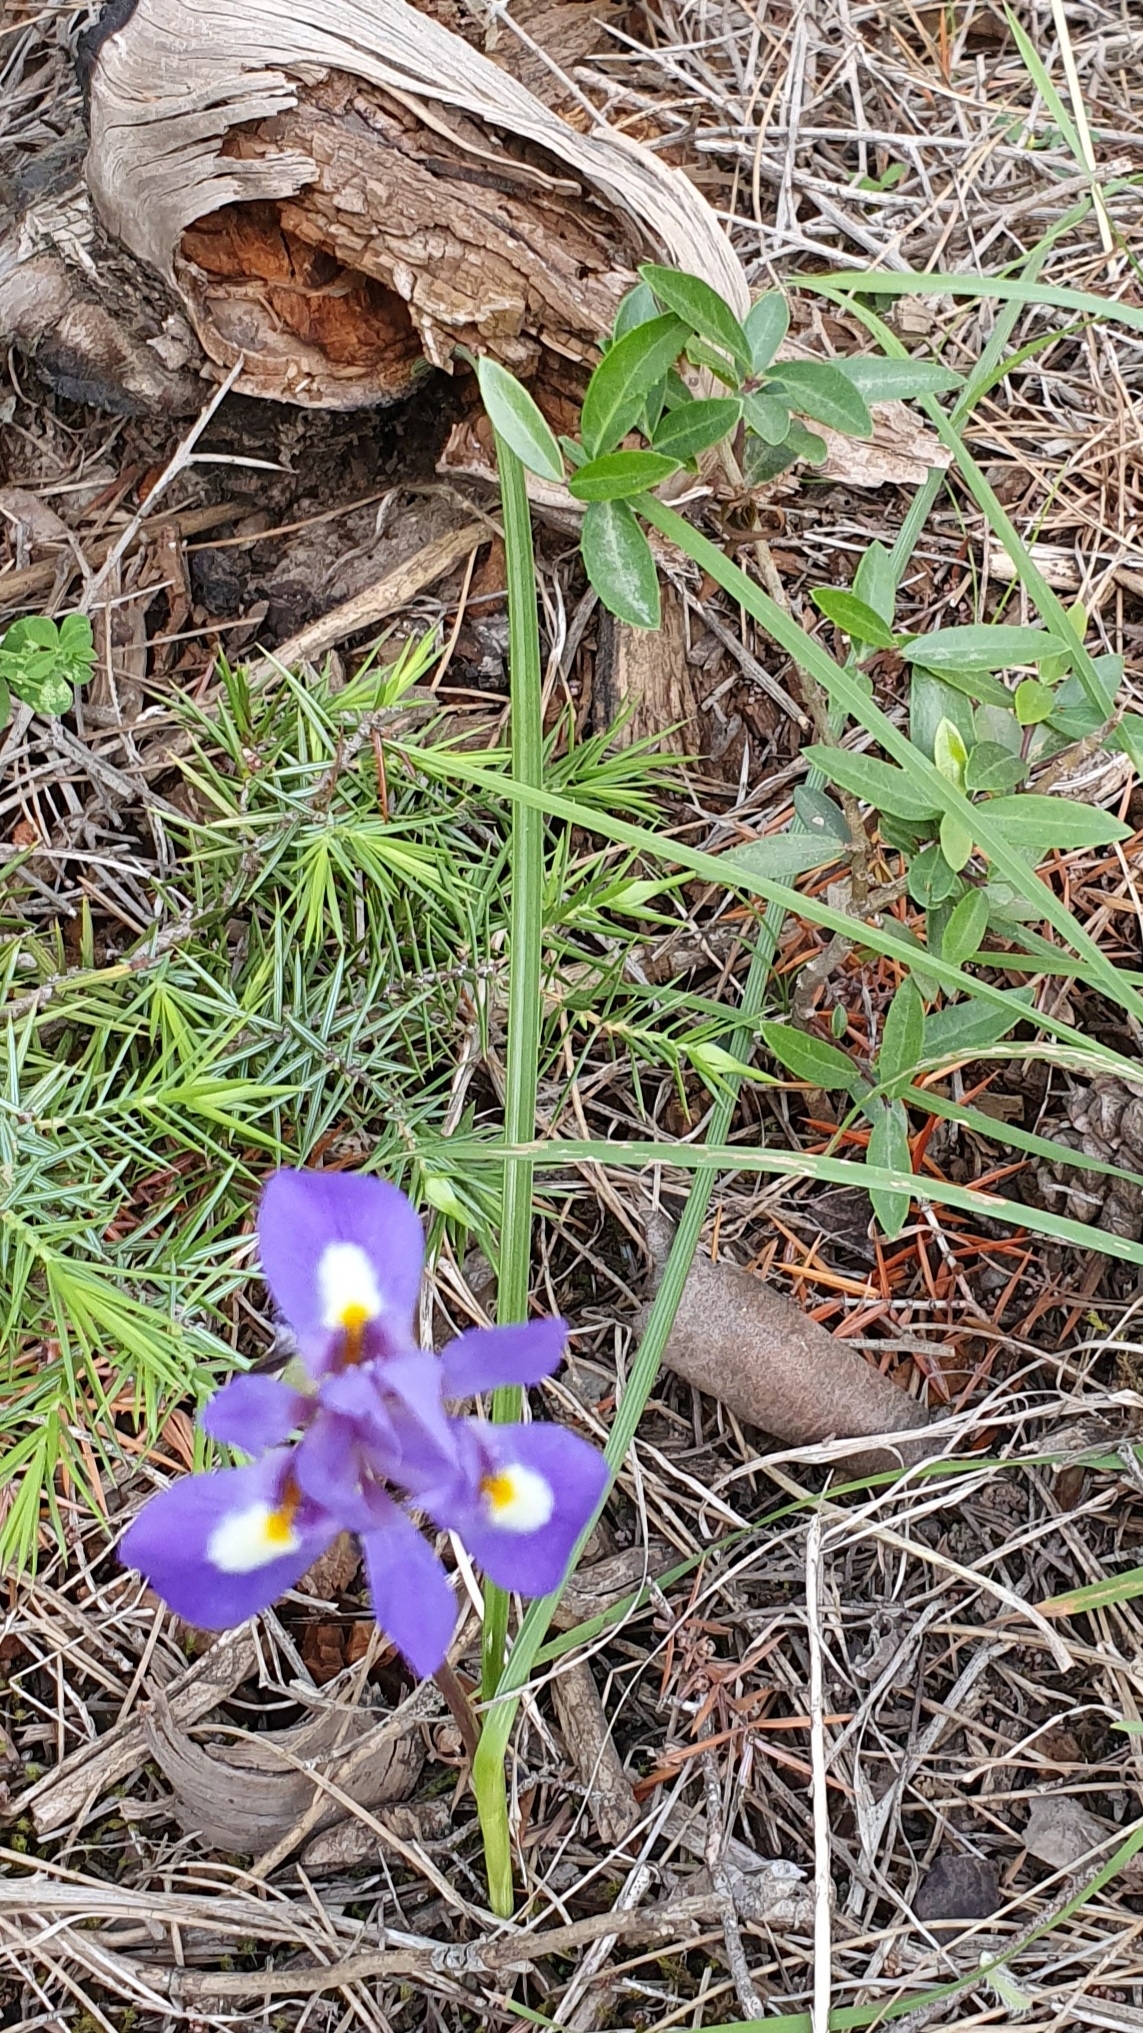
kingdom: Plantae
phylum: Tracheophyta
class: Liliopsida
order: Asparagales
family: Iridaceae
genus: Moraea
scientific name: Moraea sisyrinchium
